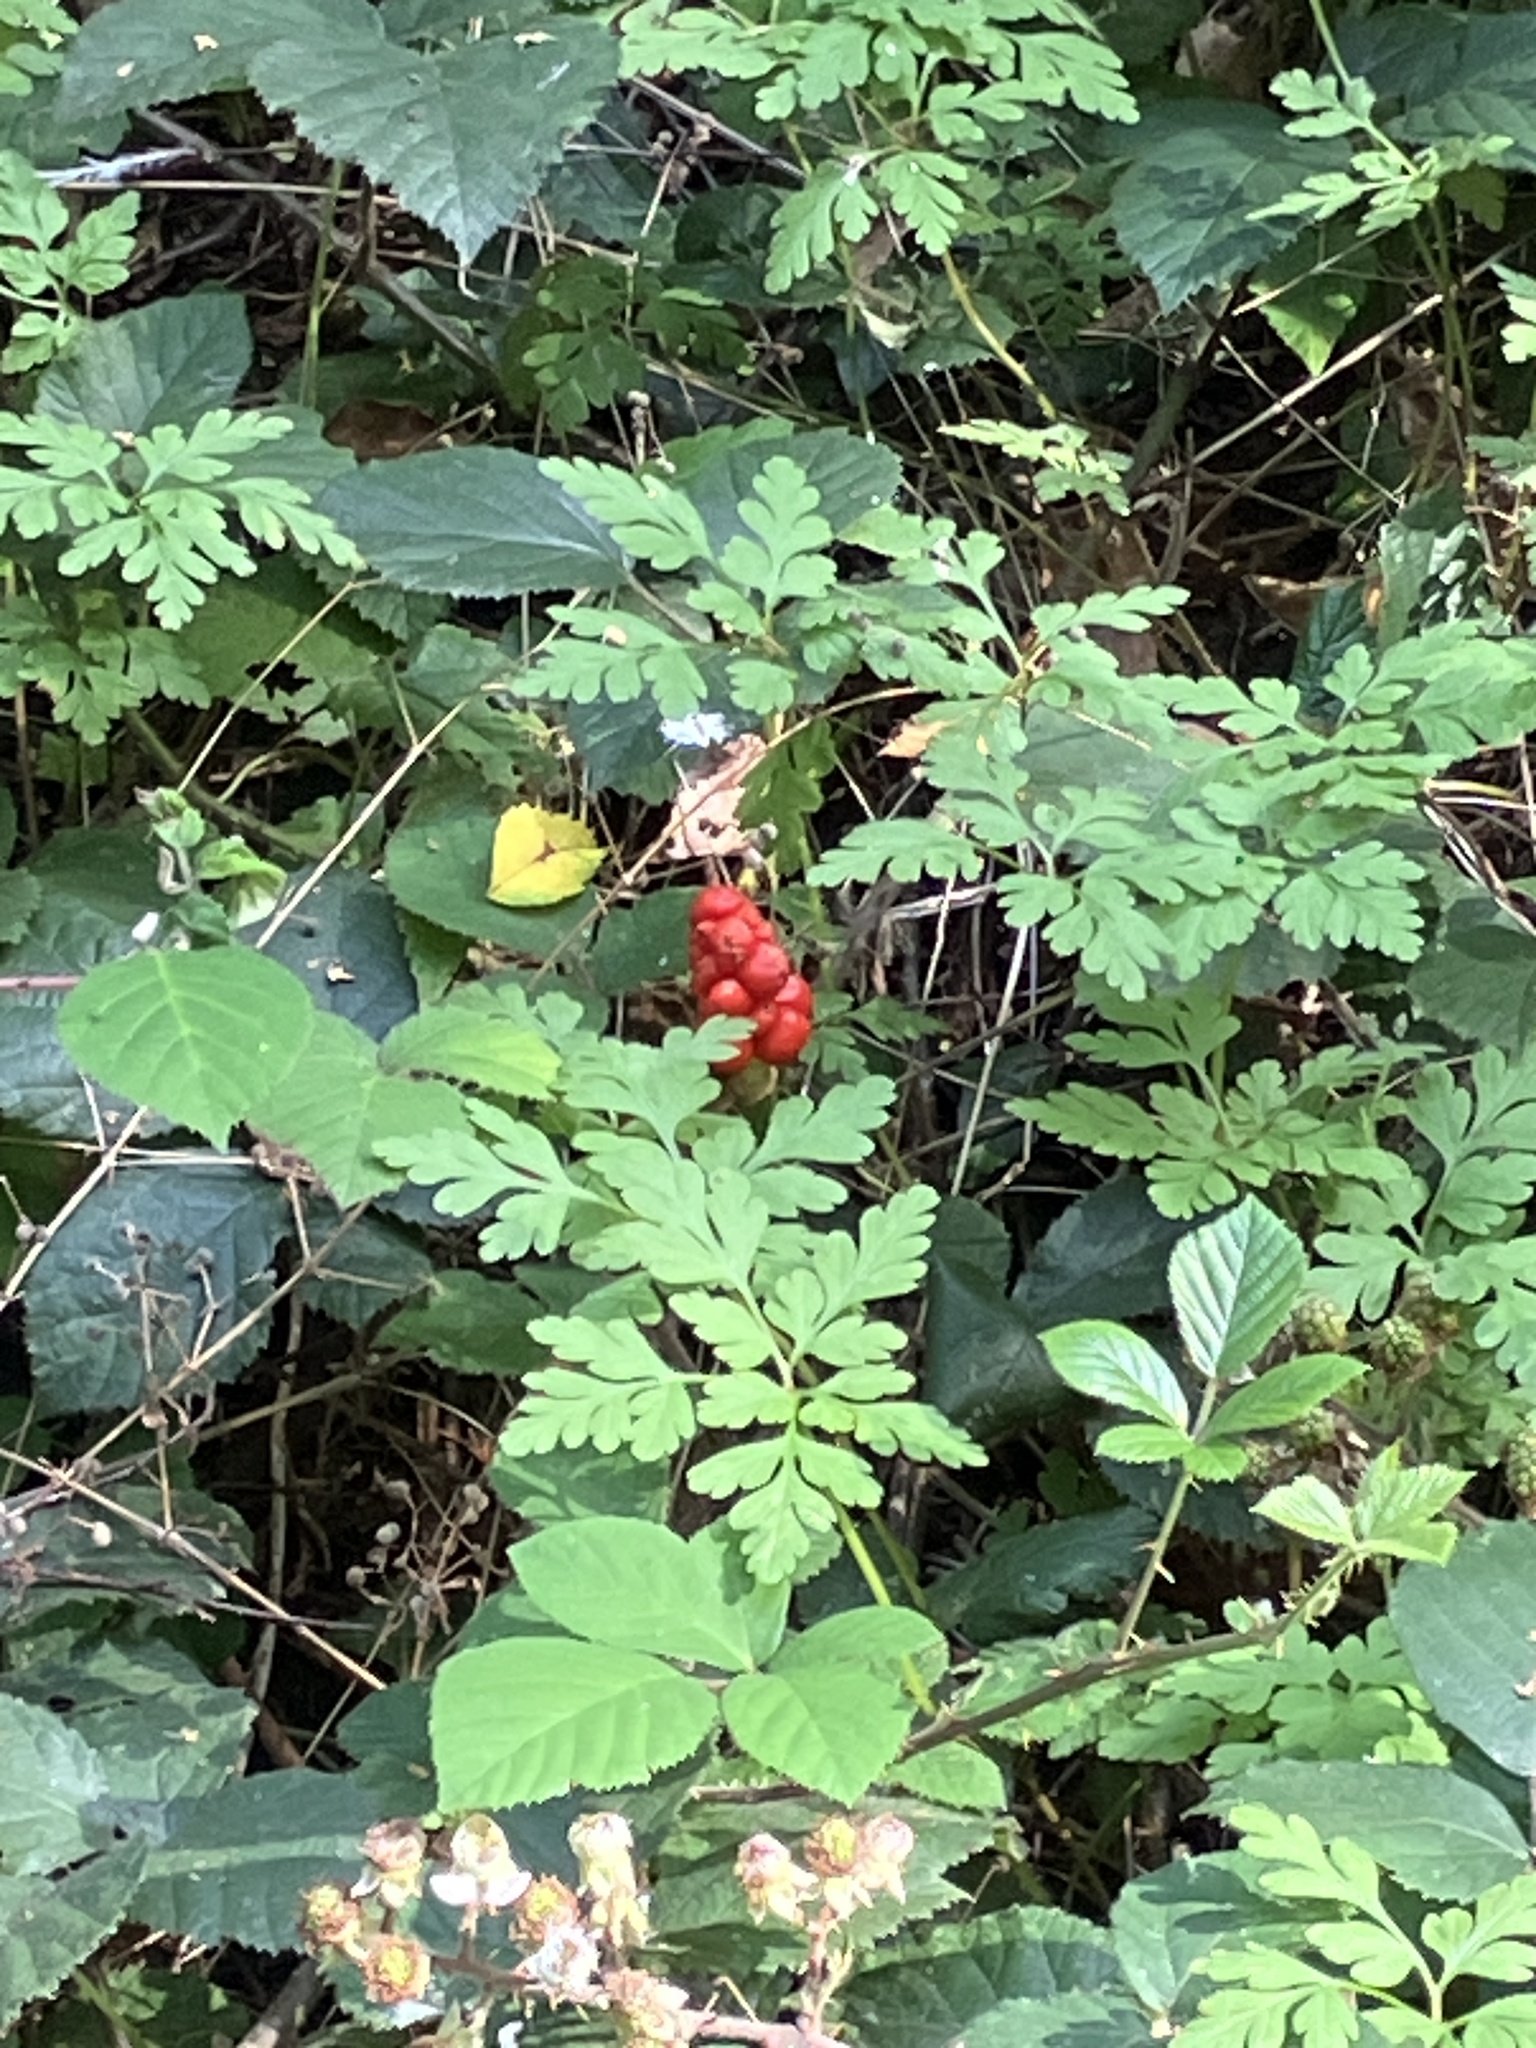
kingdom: Plantae
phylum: Tracheophyta
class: Liliopsida
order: Alismatales
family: Araceae
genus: Arum
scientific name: Arum maculatum
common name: Lords-and-ladies
